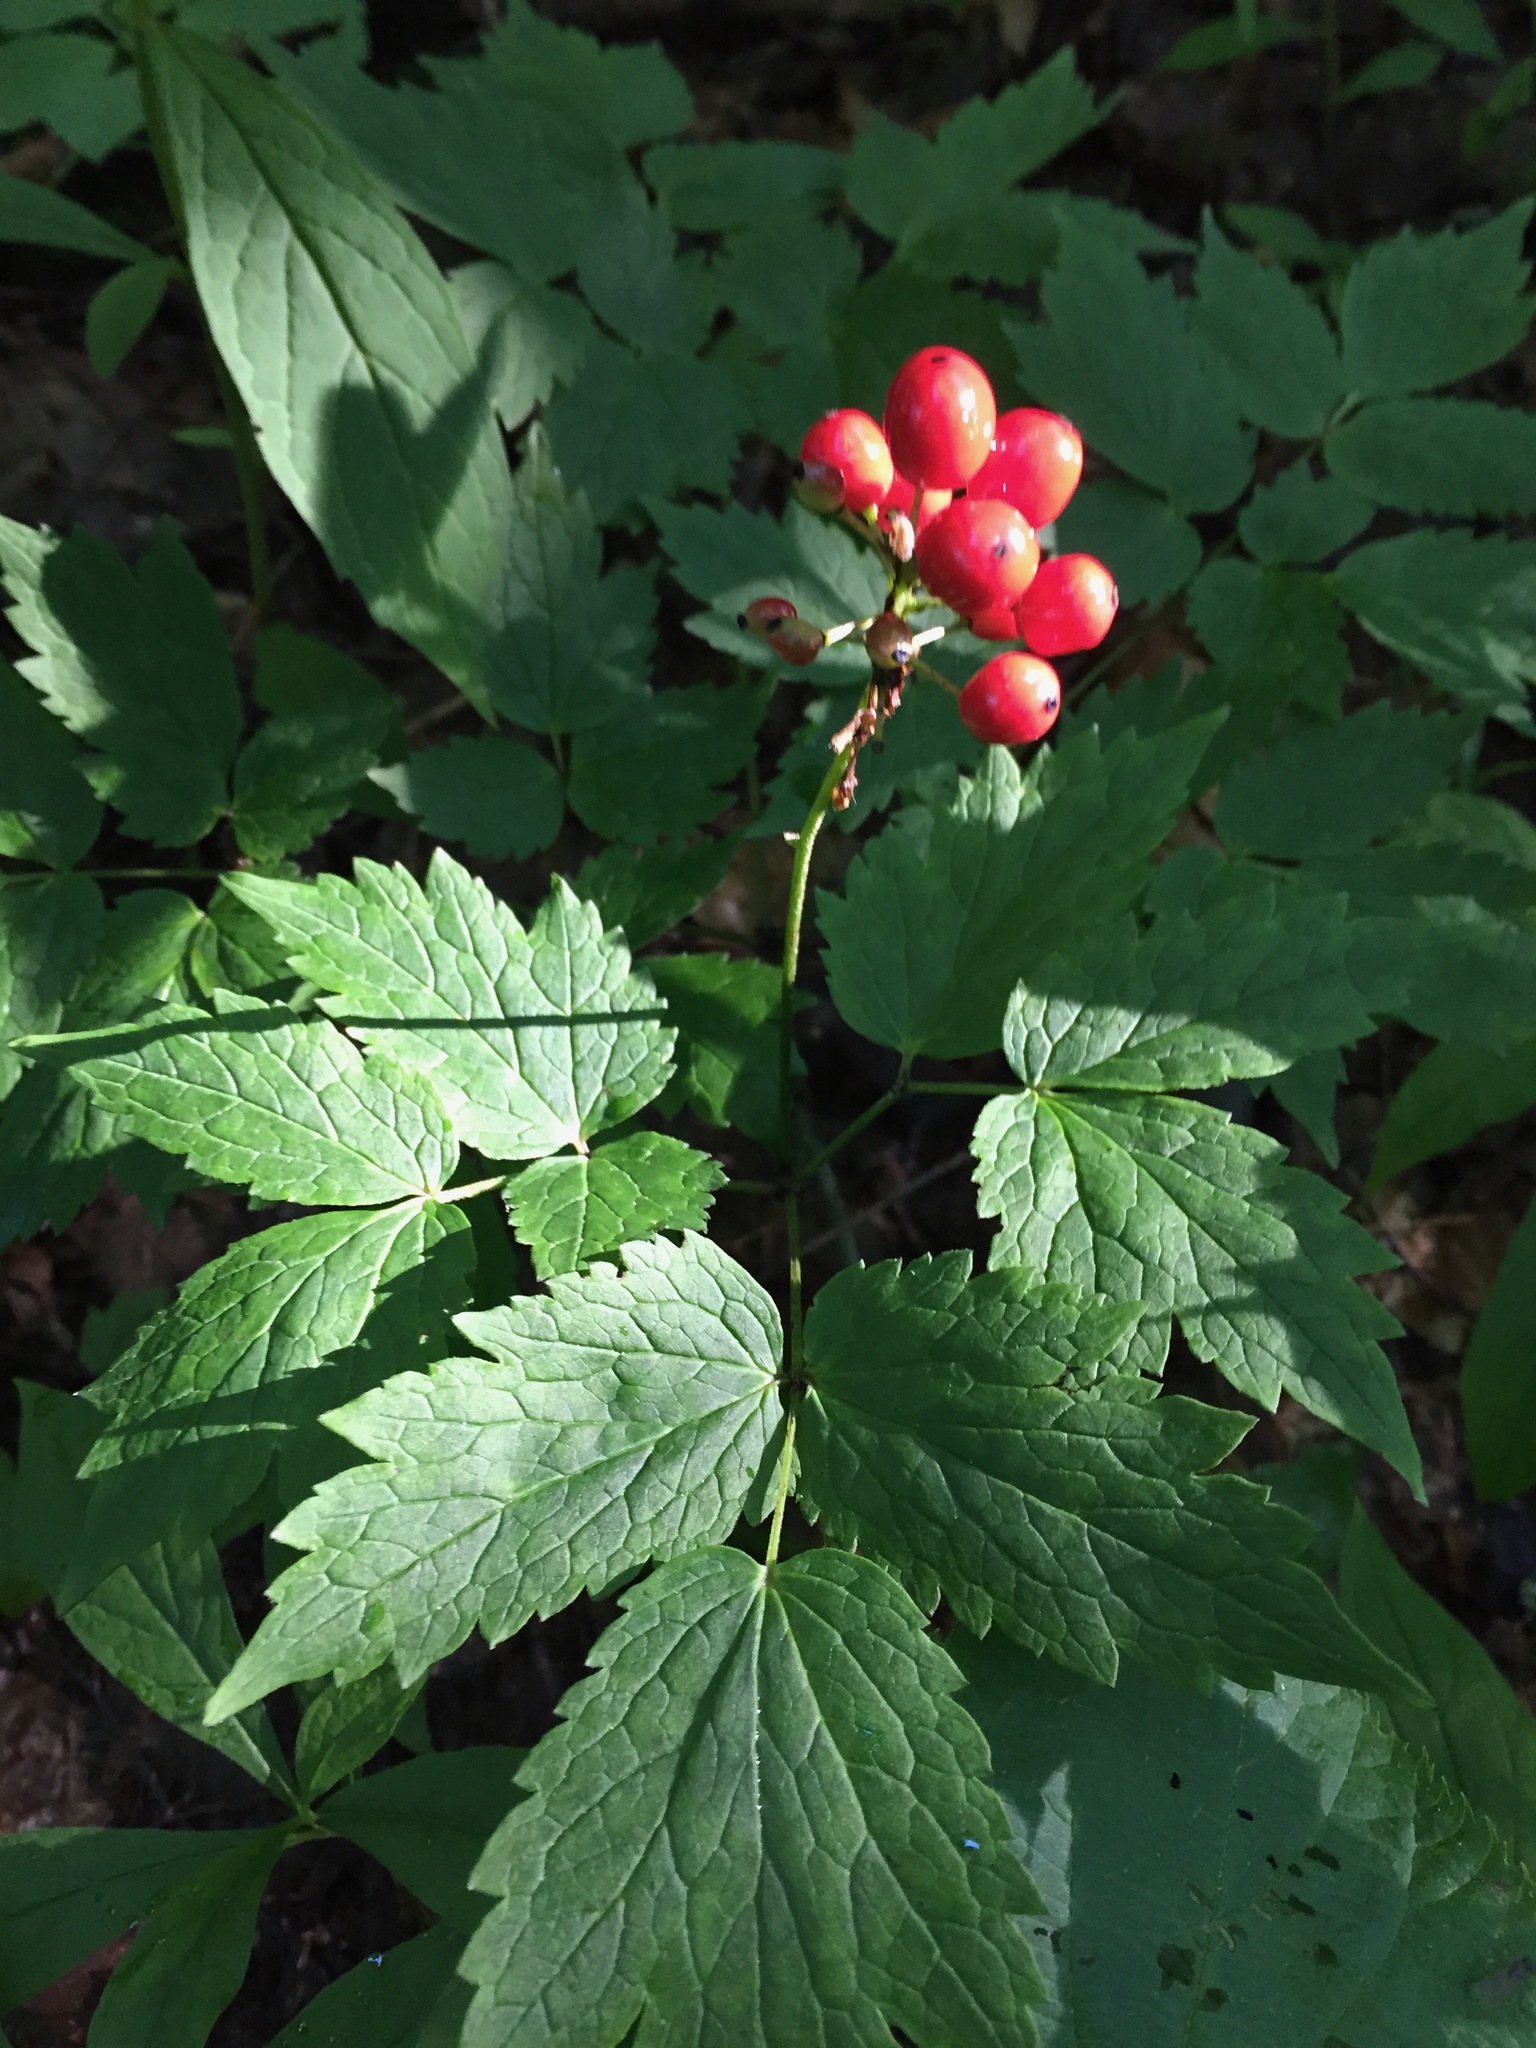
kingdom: Plantae
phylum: Tracheophyta
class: Magnoliopsida
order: Ranunculales
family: Ranunculaceae
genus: Actaea
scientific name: Actaea rubra
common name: Red baneberry
